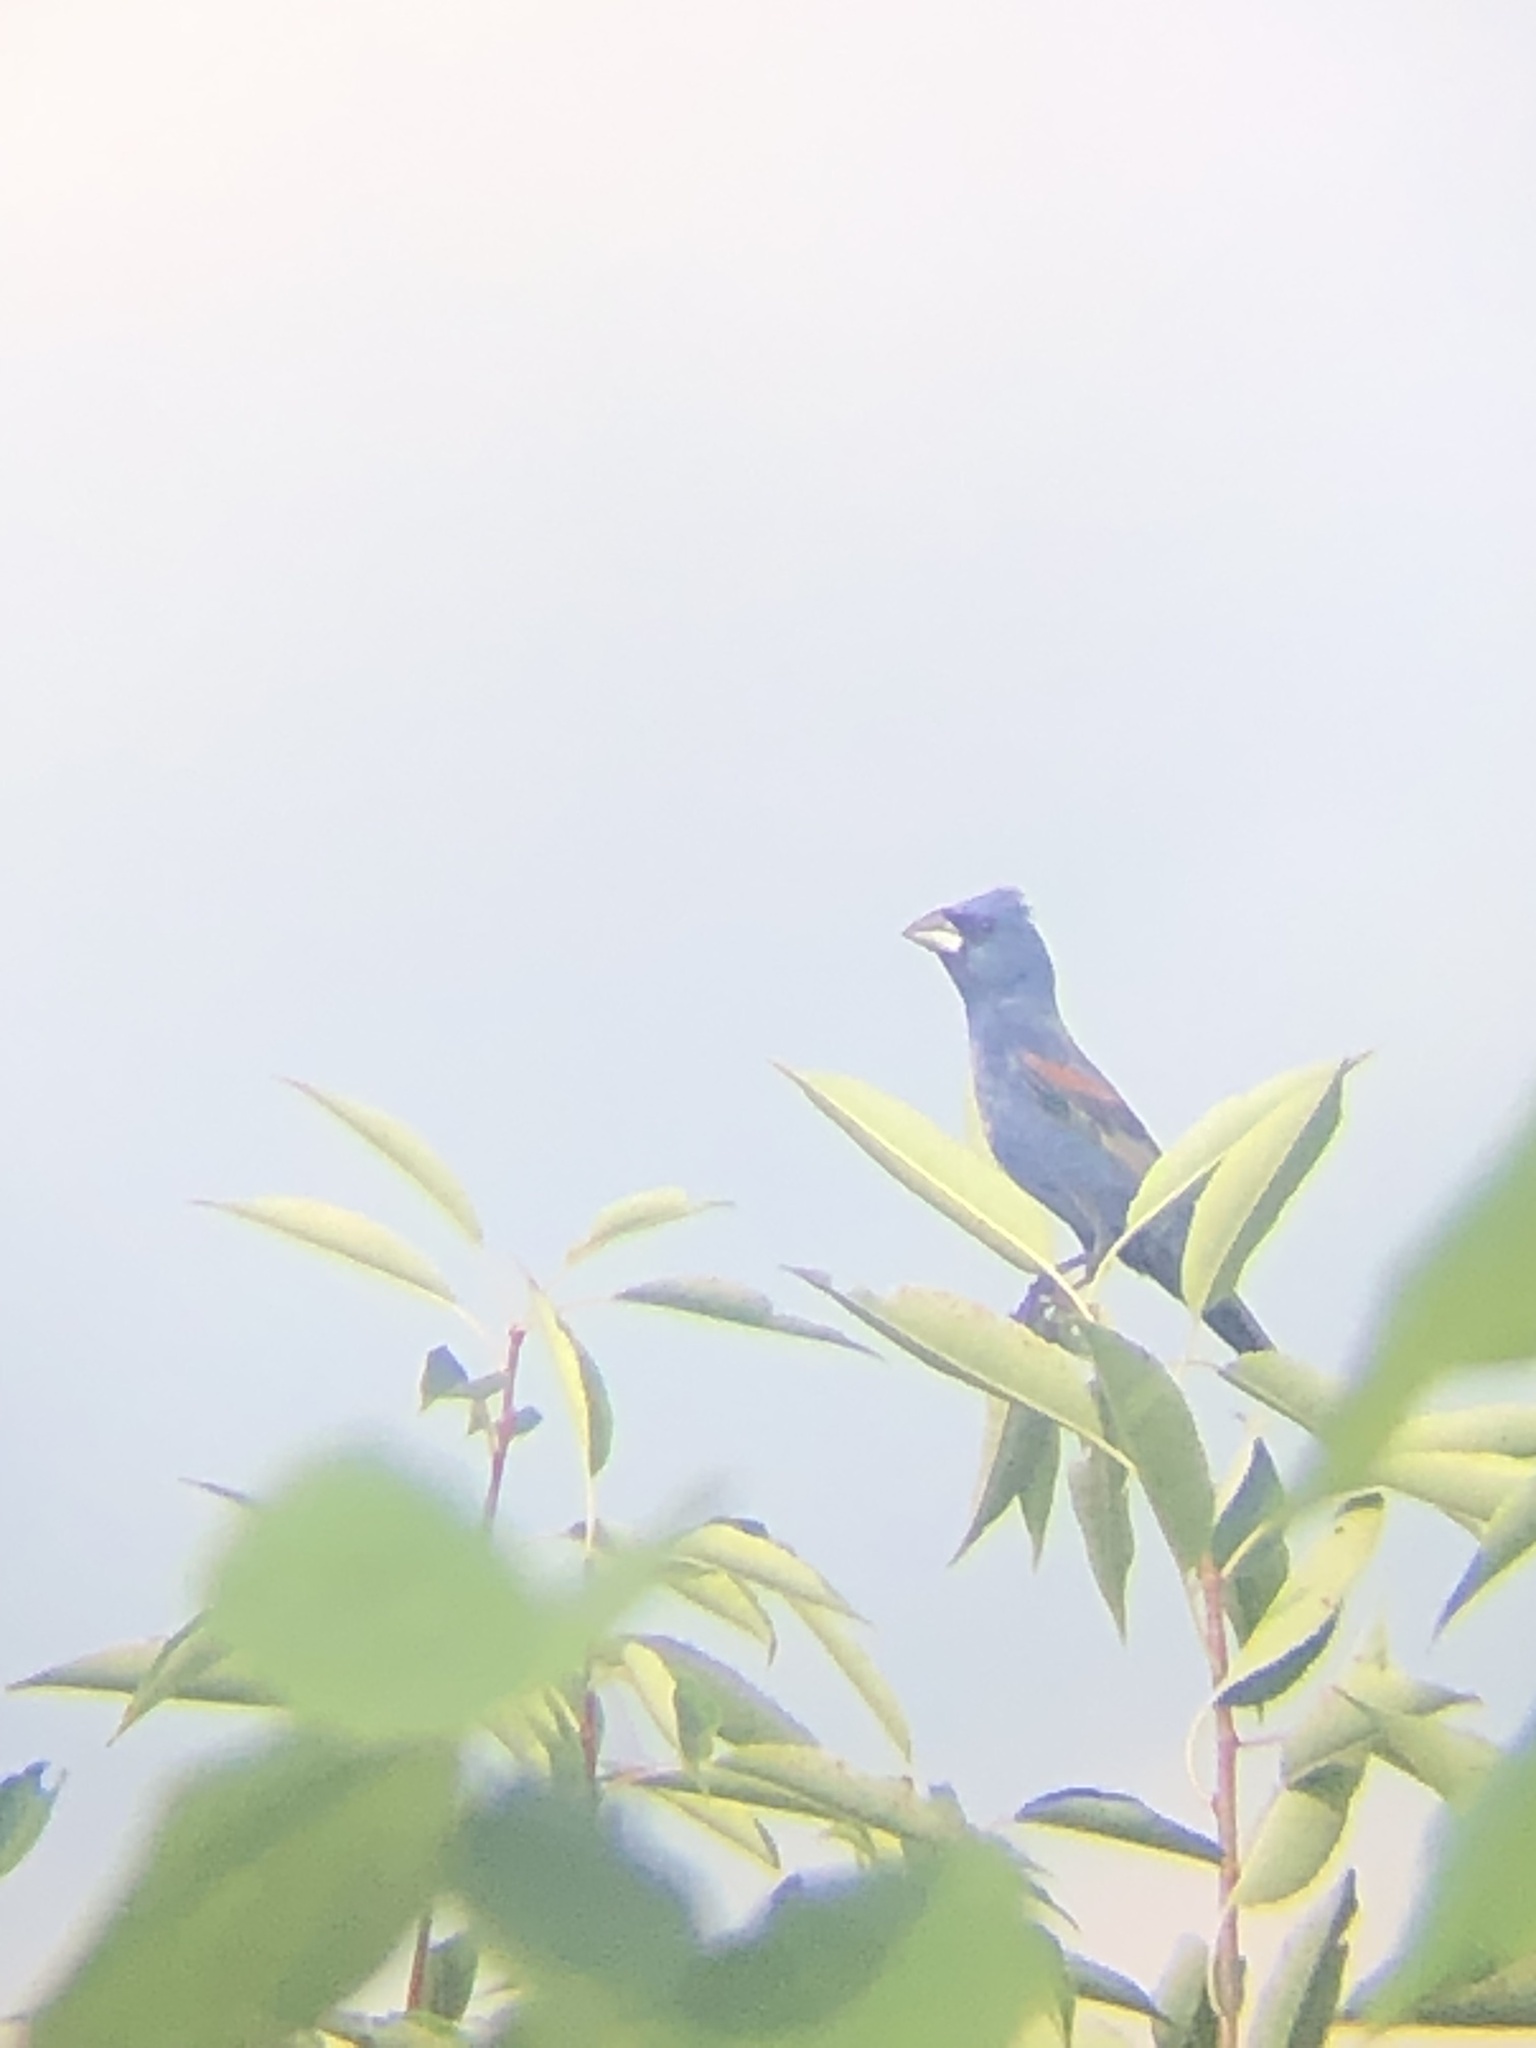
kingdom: Animalia
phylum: Chordata
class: Aves
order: Passeriformes
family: Cardinalidae
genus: Passerina
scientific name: Passerina caerulea
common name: Blue grosbeak
